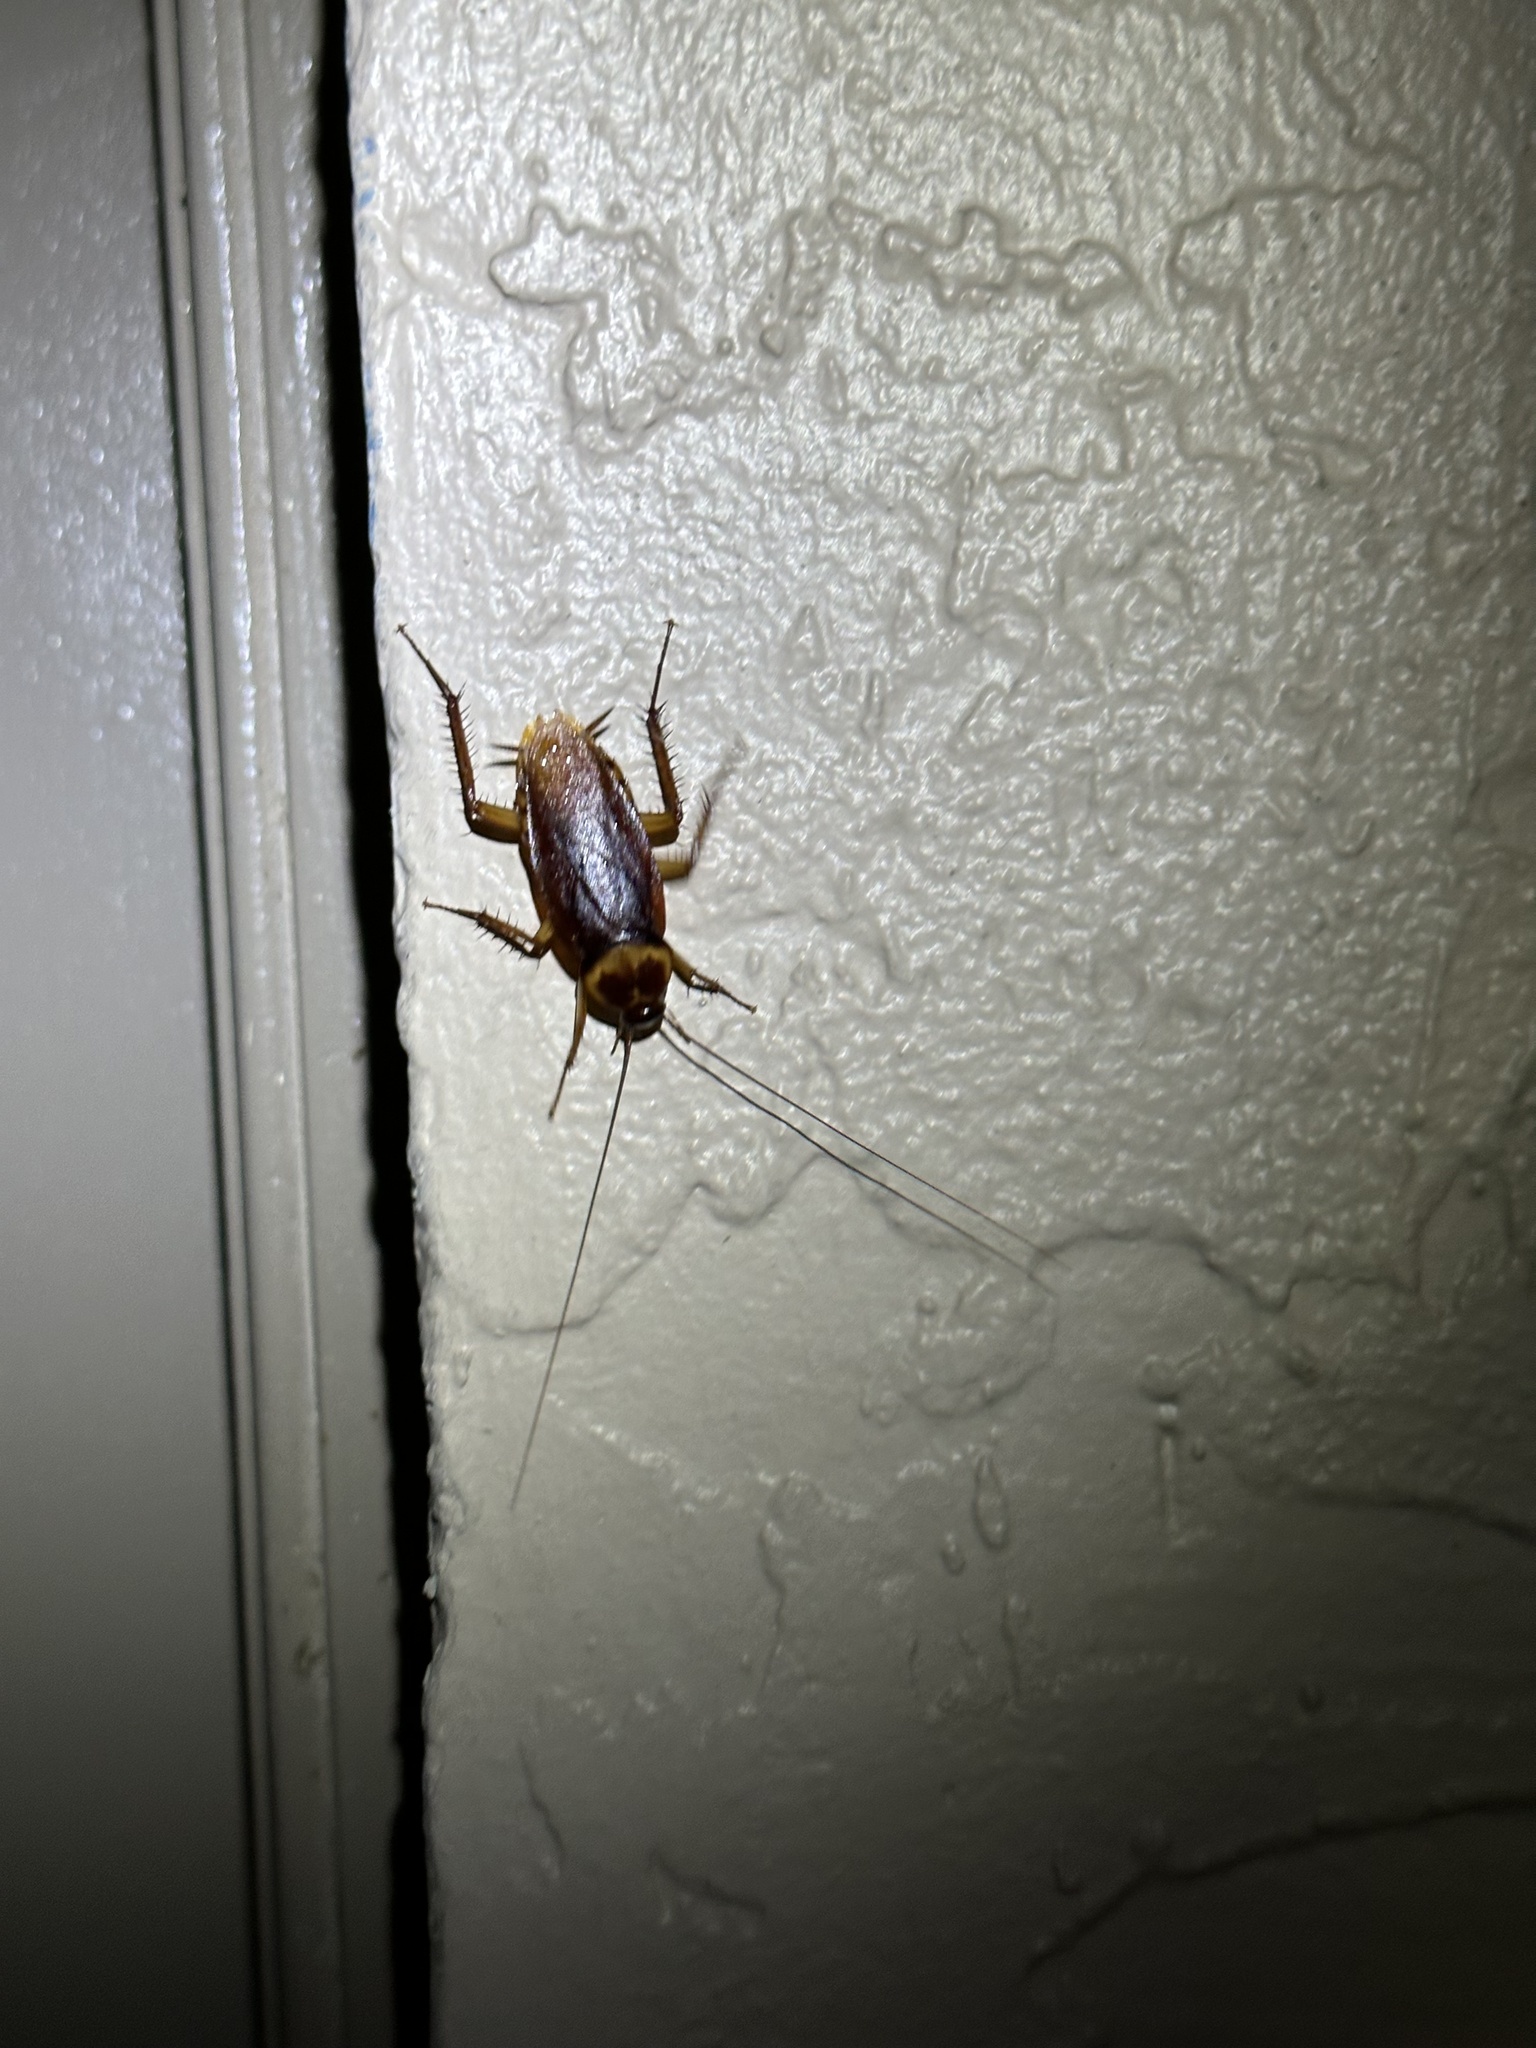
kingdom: Animalia
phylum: Arthropoda
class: Insecta
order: Blattodea
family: Blattidae
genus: Periplaneta
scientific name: Periplaneta americana
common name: American cockroach
